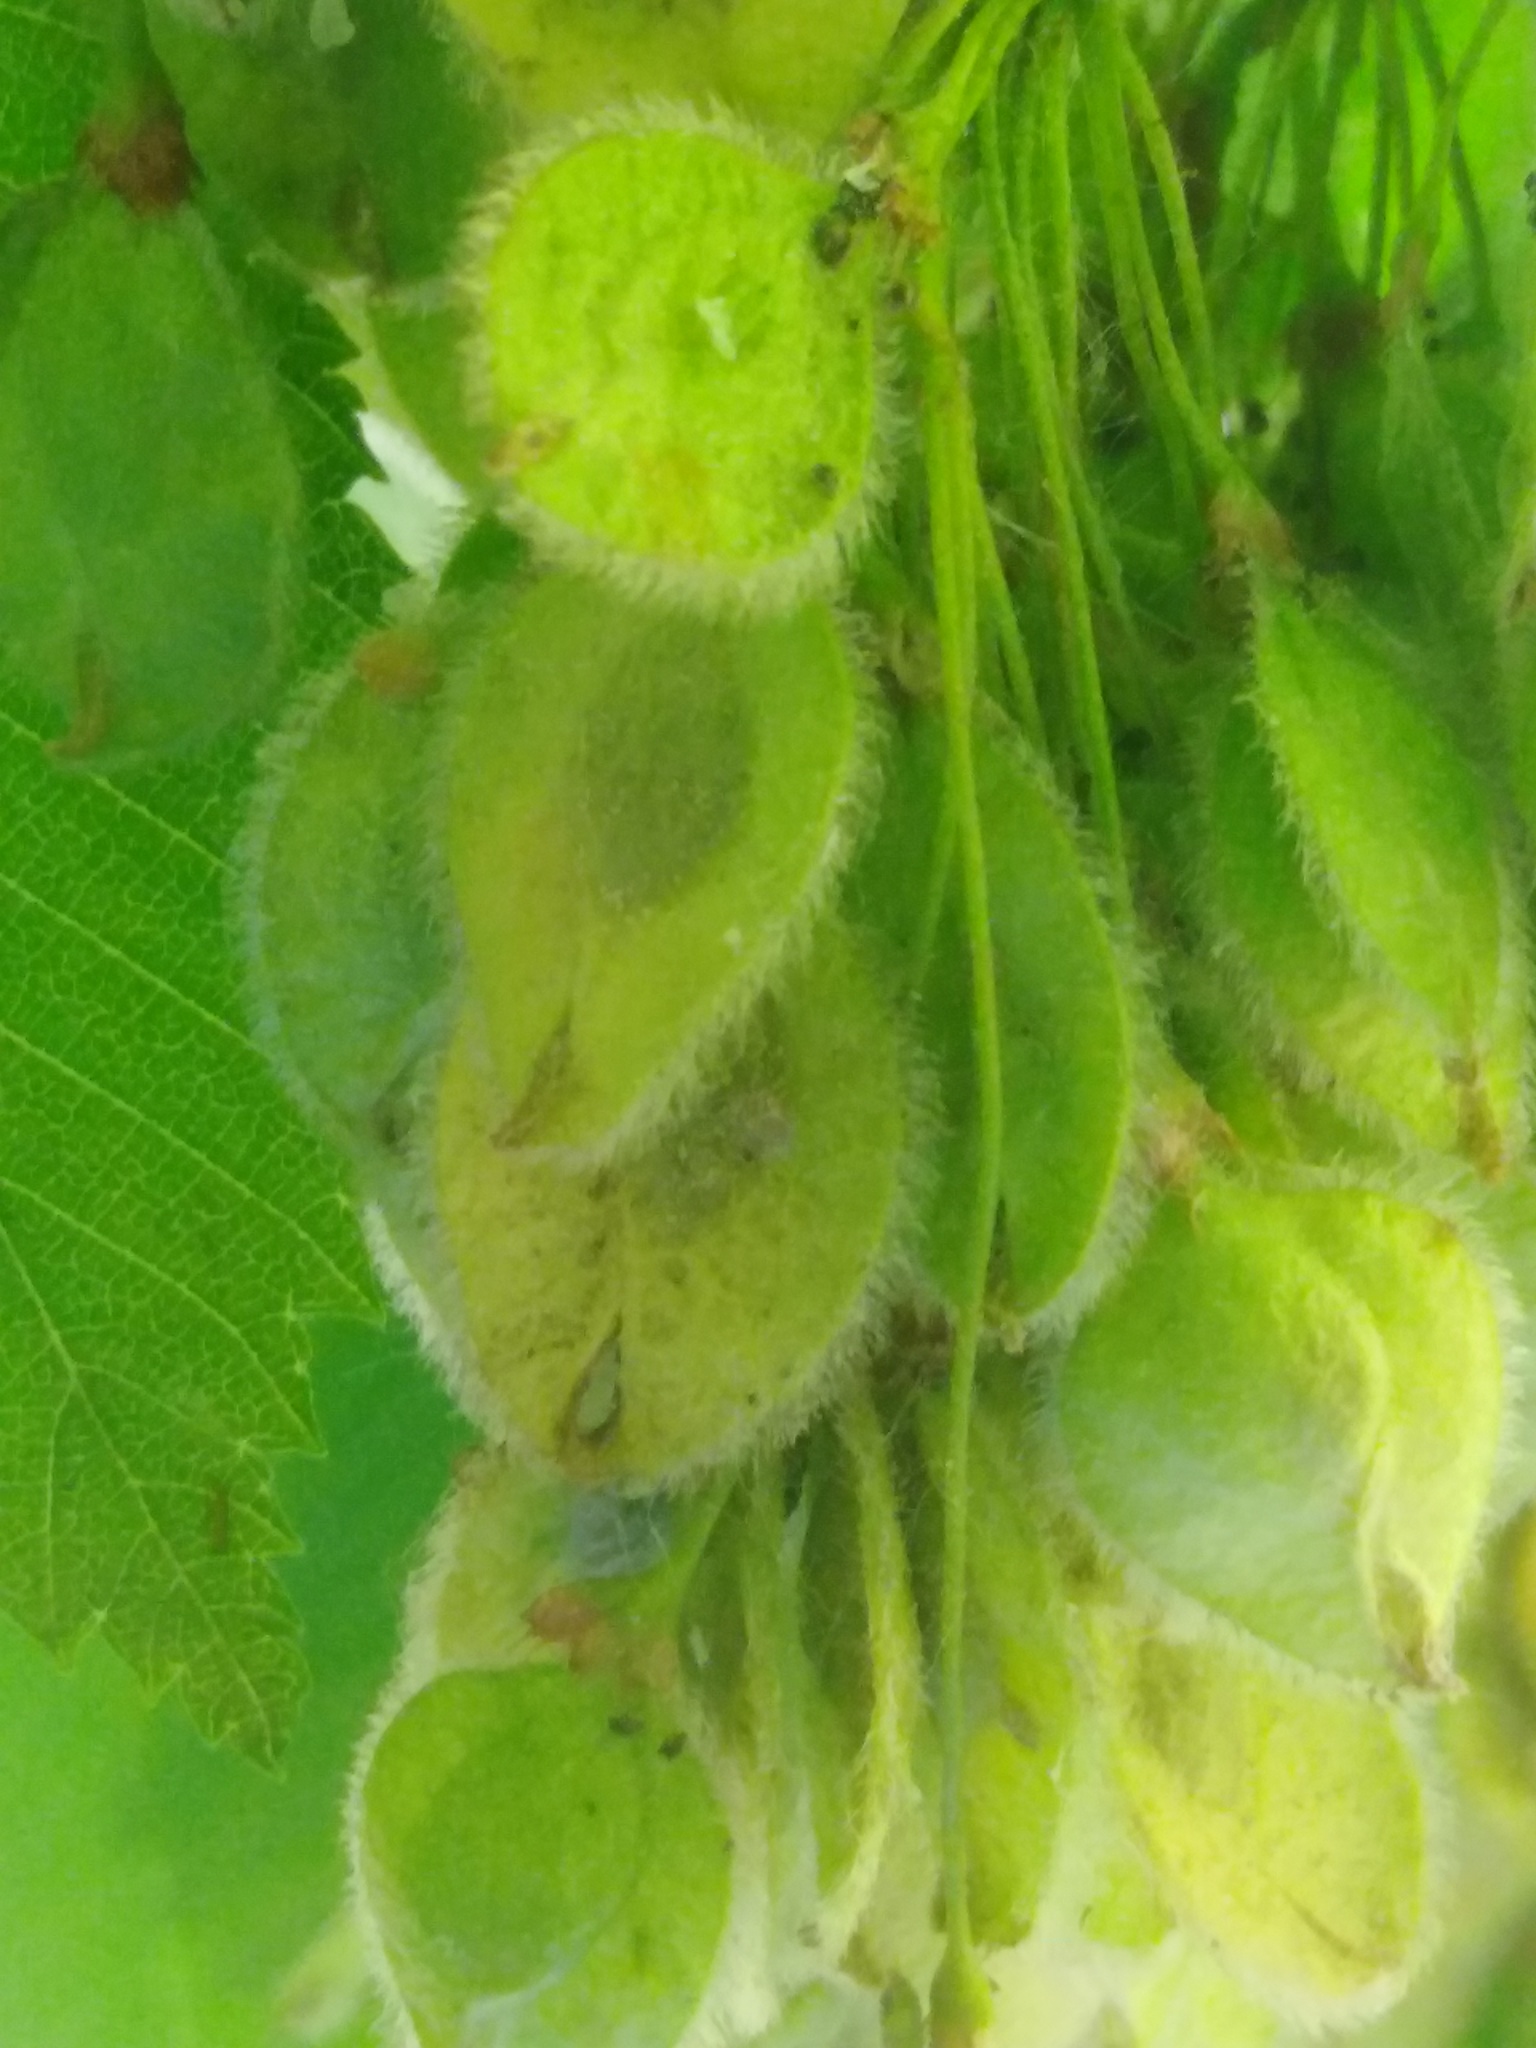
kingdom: Plantae
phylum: Tracheophyta
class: Magnoliopsida
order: Rosales
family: Ulmaceae
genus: Ulmus
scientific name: Ulmus laevis
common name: European white-elm
